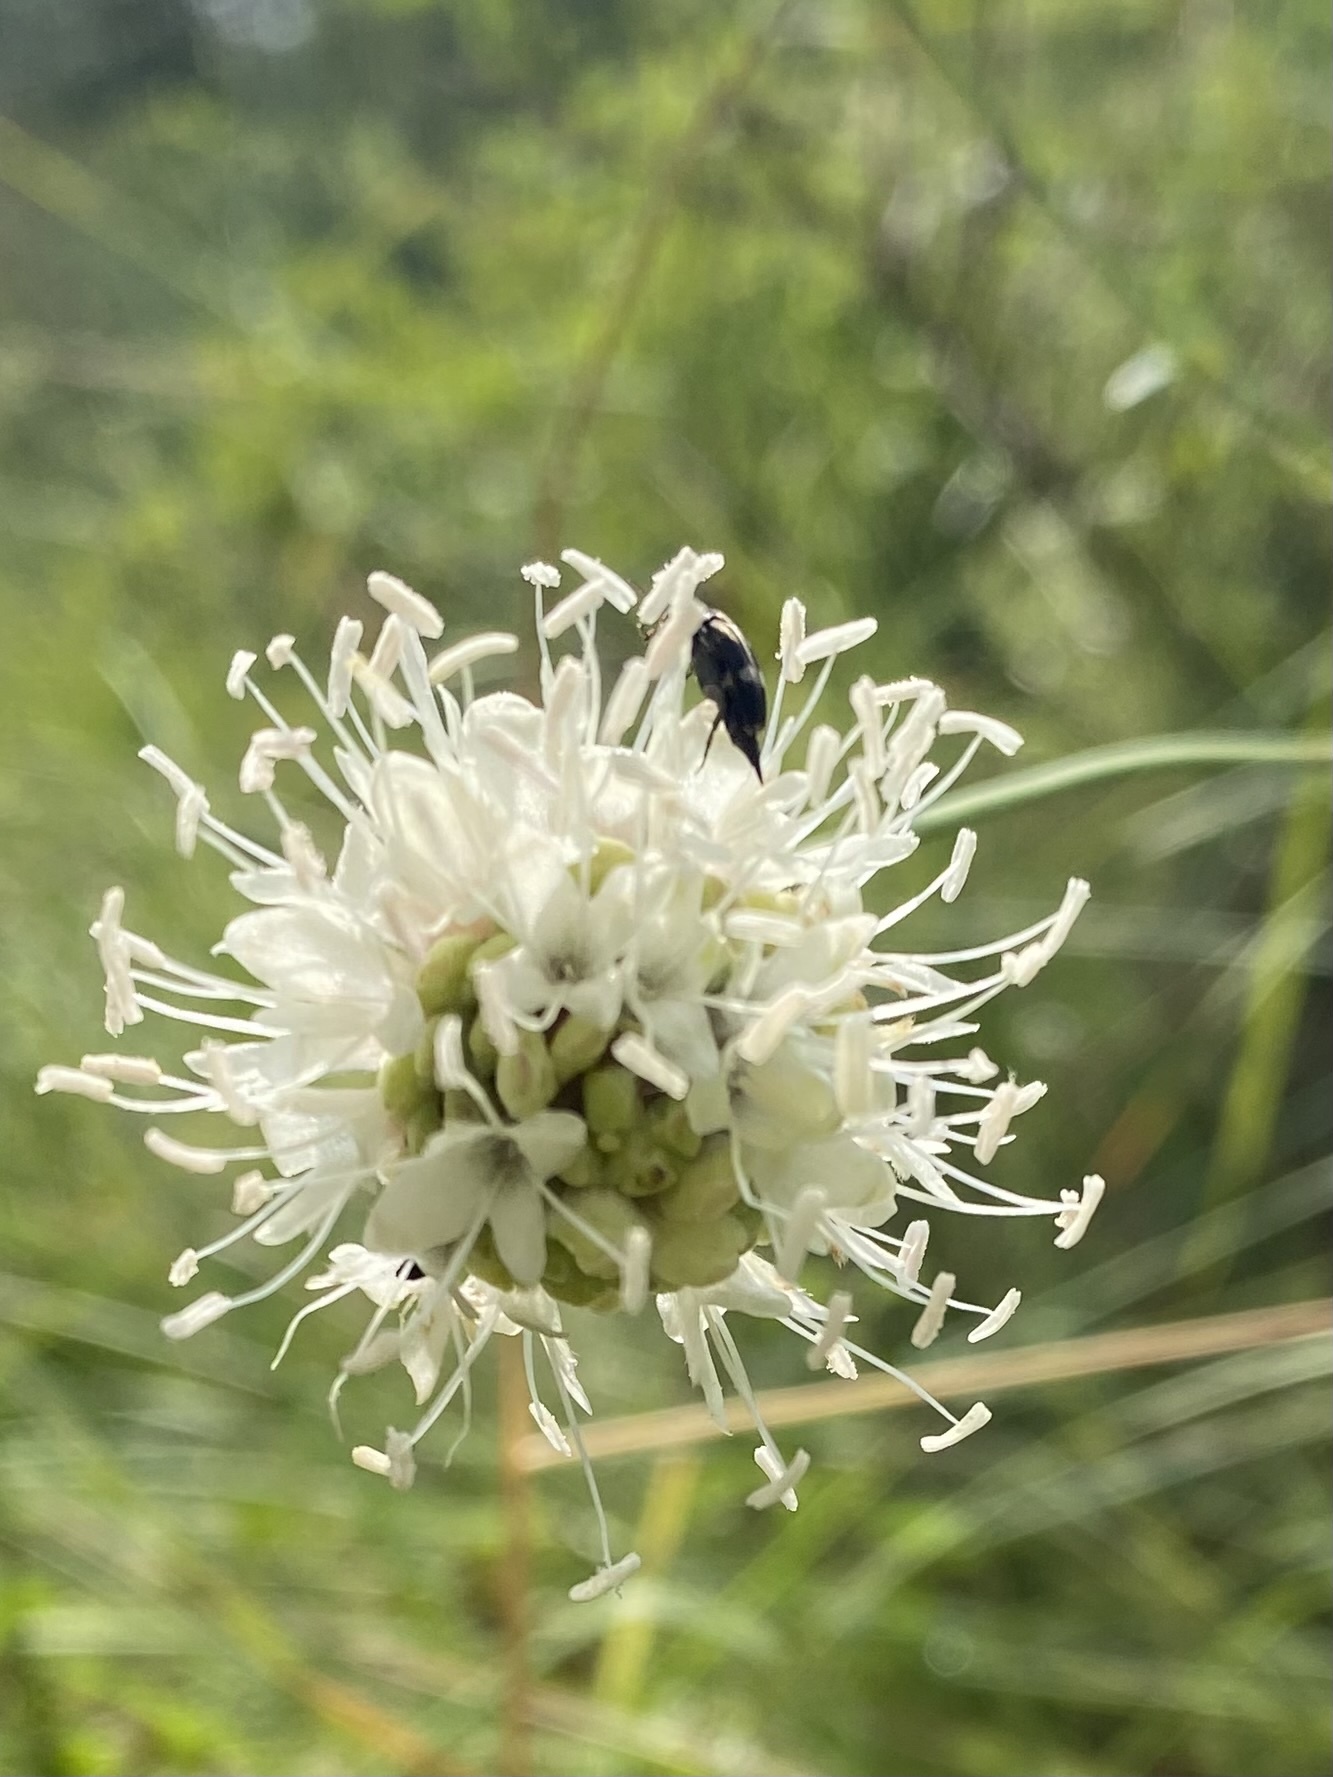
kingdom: Plantae
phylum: Tracheophyta
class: Magnoliopsida
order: Dipsacales
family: Caprifoliaceae
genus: Cephalaria
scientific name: Cephalaria leucantha
